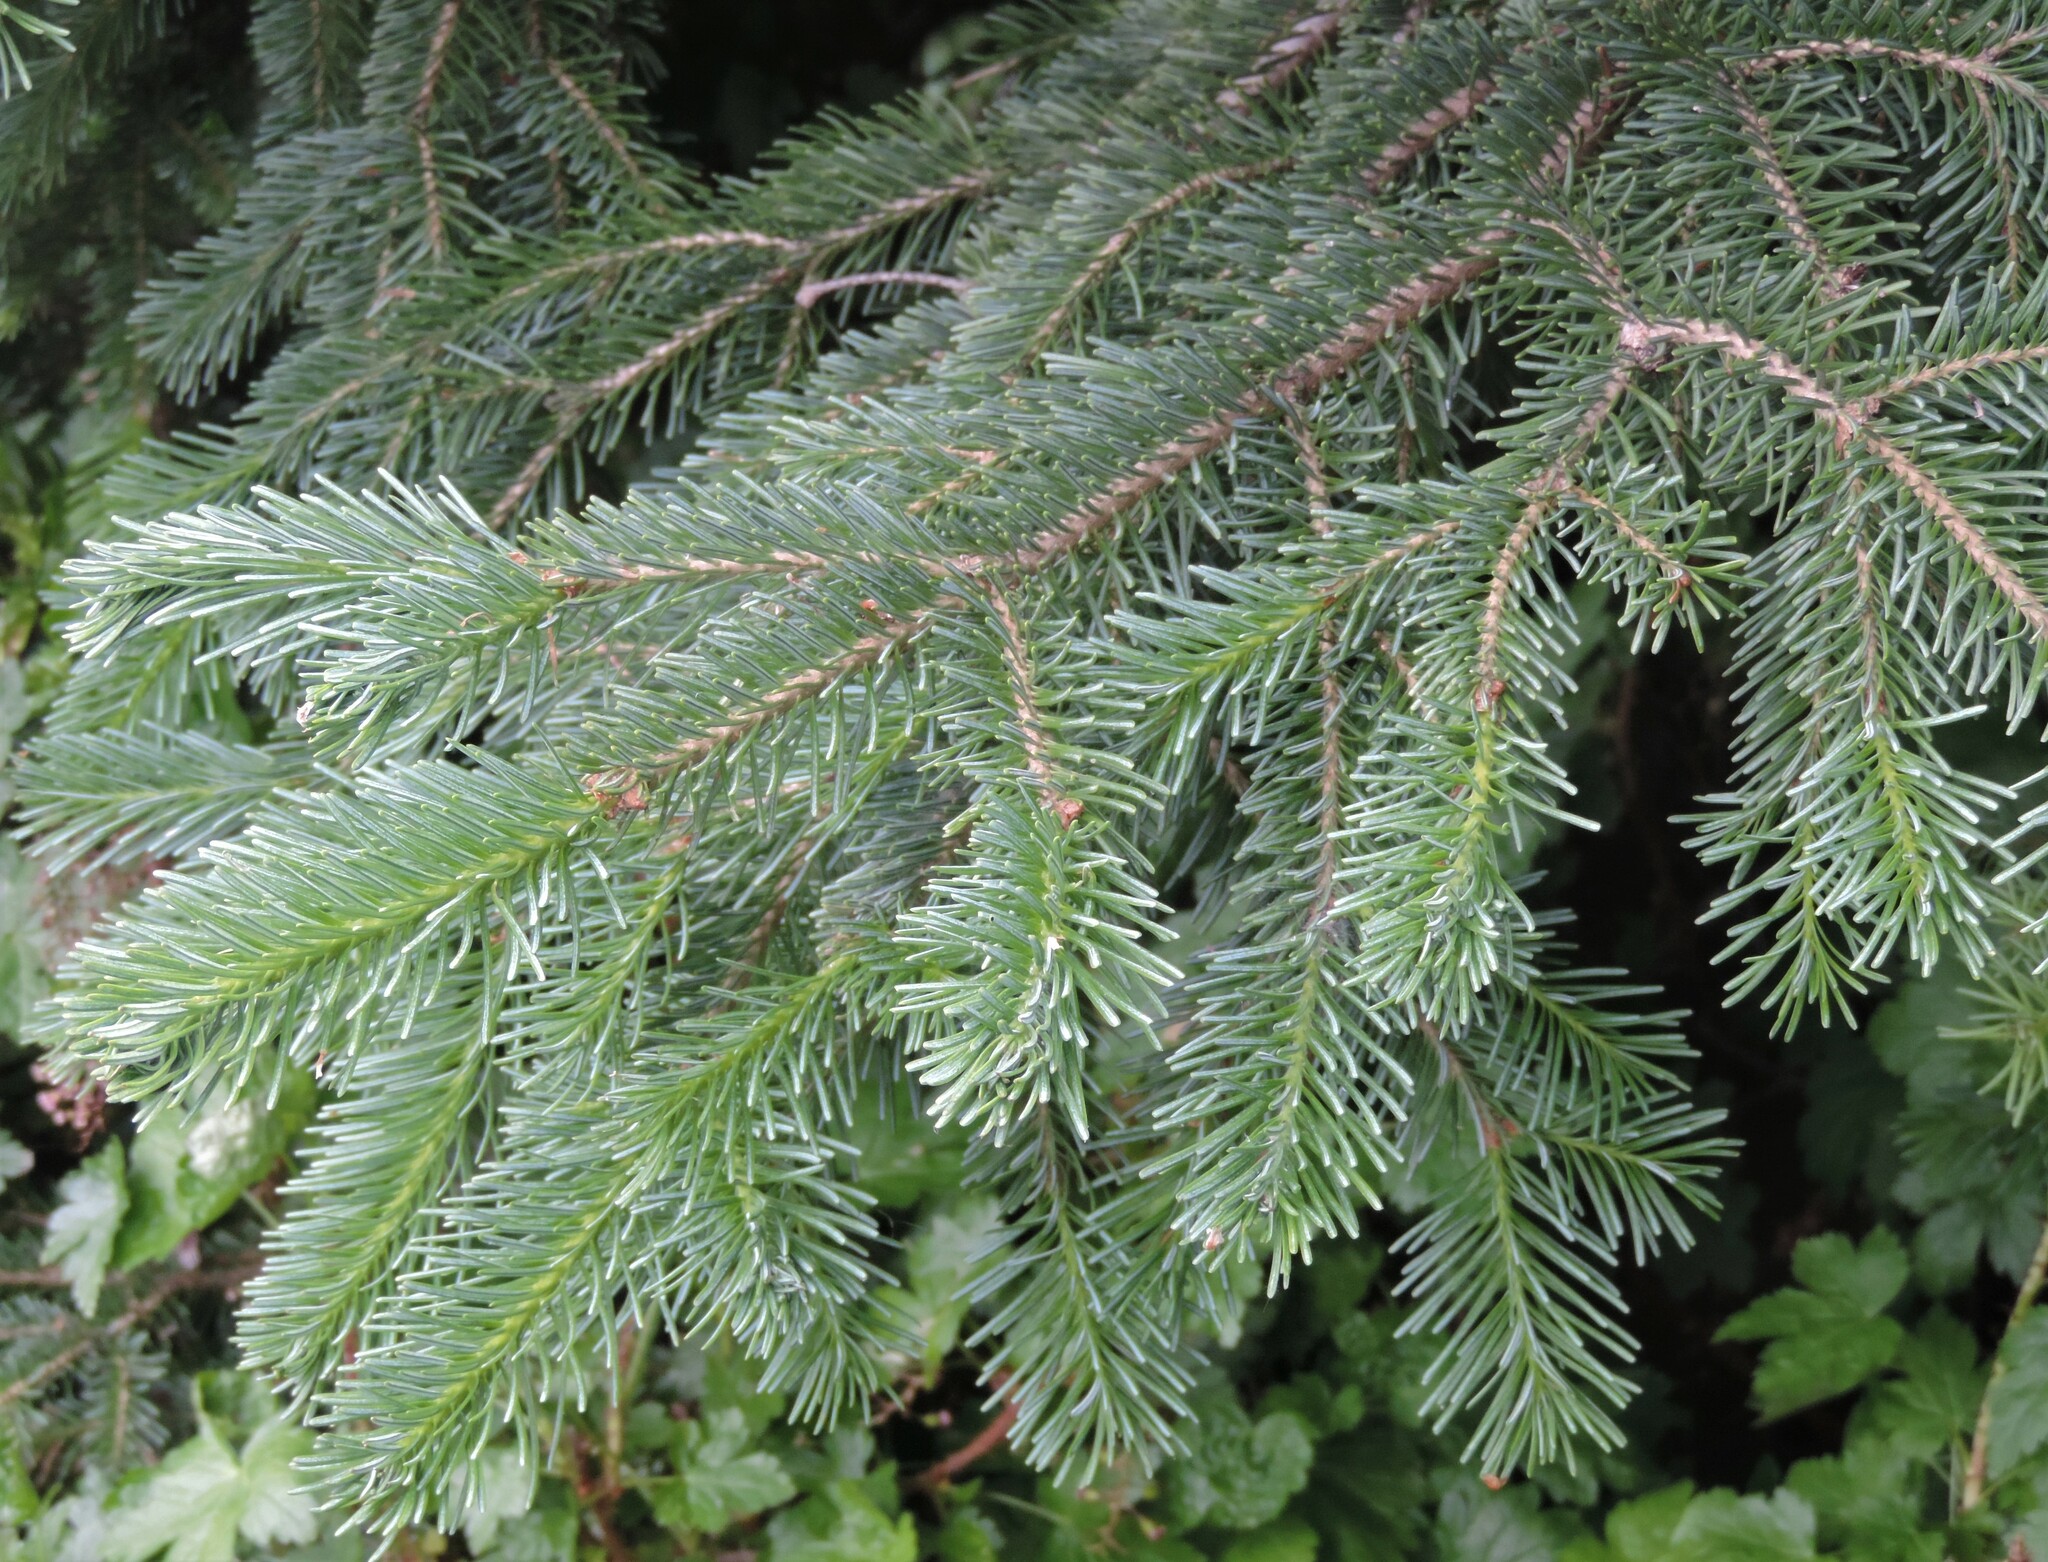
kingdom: Plantae
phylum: Tracheophyta
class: Pinopsida
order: Pinales
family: Pinaceae
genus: Abies
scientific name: Abies lasiocarpa
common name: Subalpine fir
